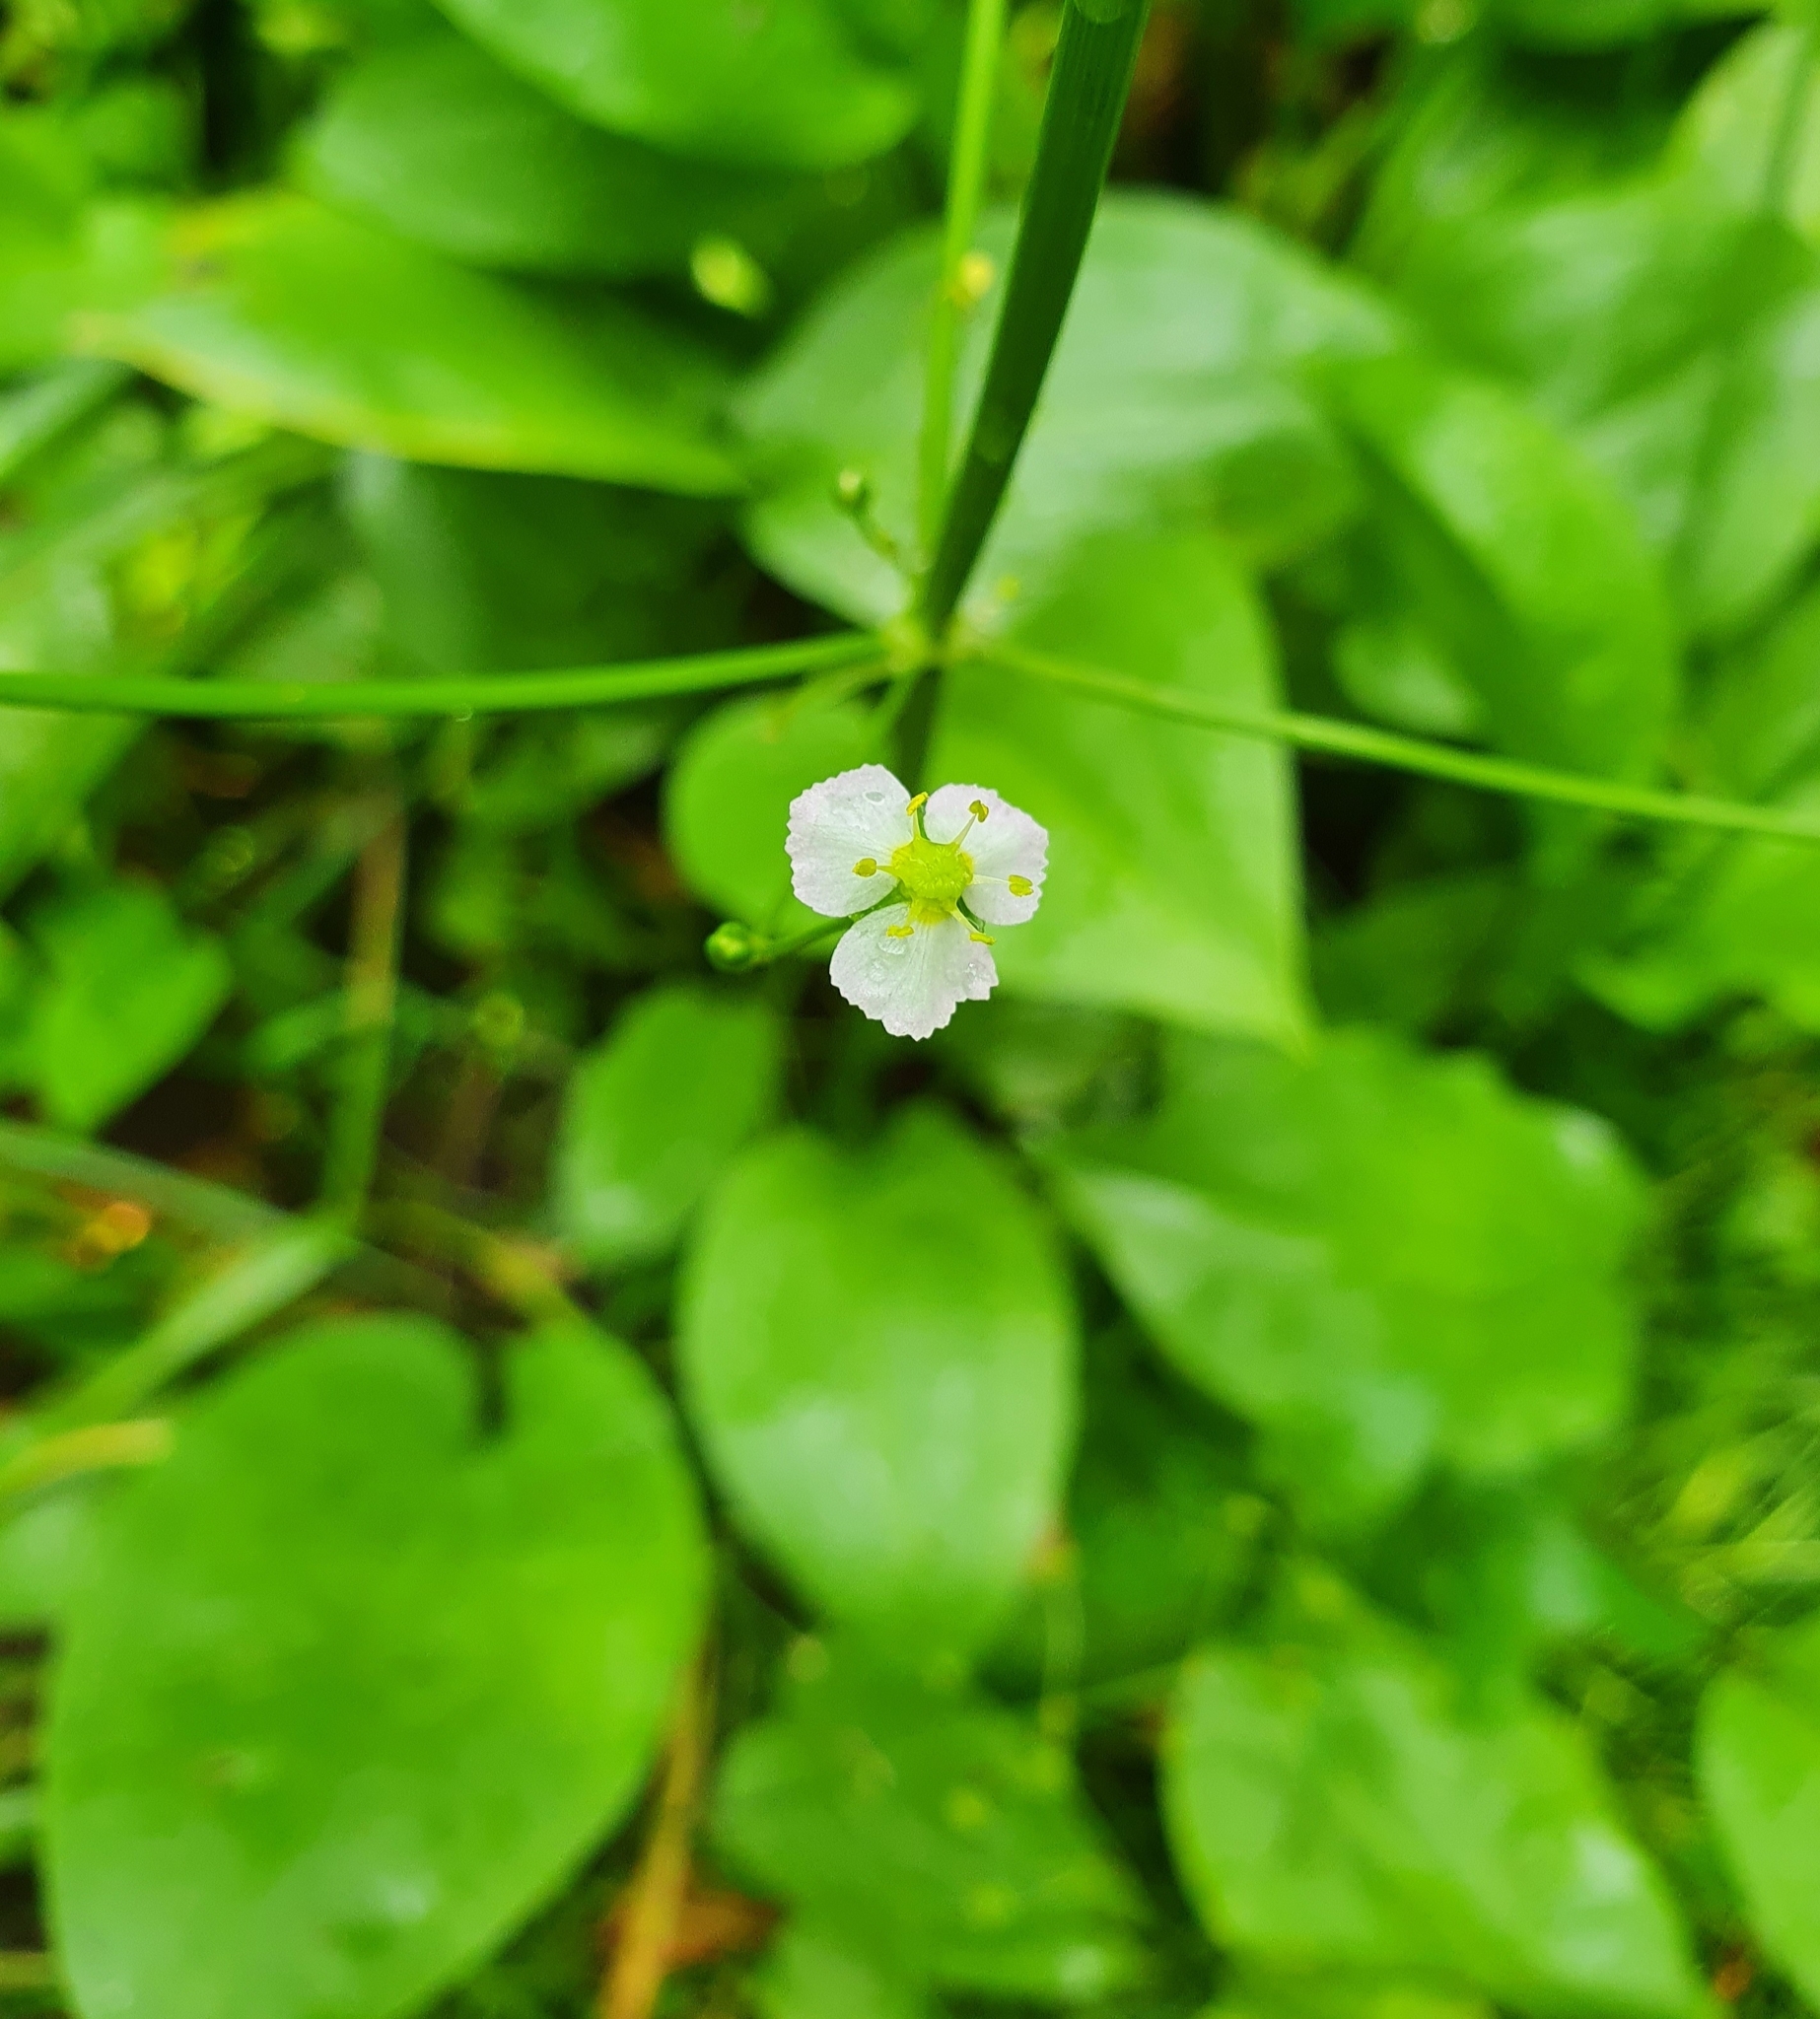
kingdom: Plantae
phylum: Tracheophyta
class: Liliopsida
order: Alismatales
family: Alismataceae
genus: Alisma
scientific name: Alisma plantago-aquatica
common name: Water-plantain
